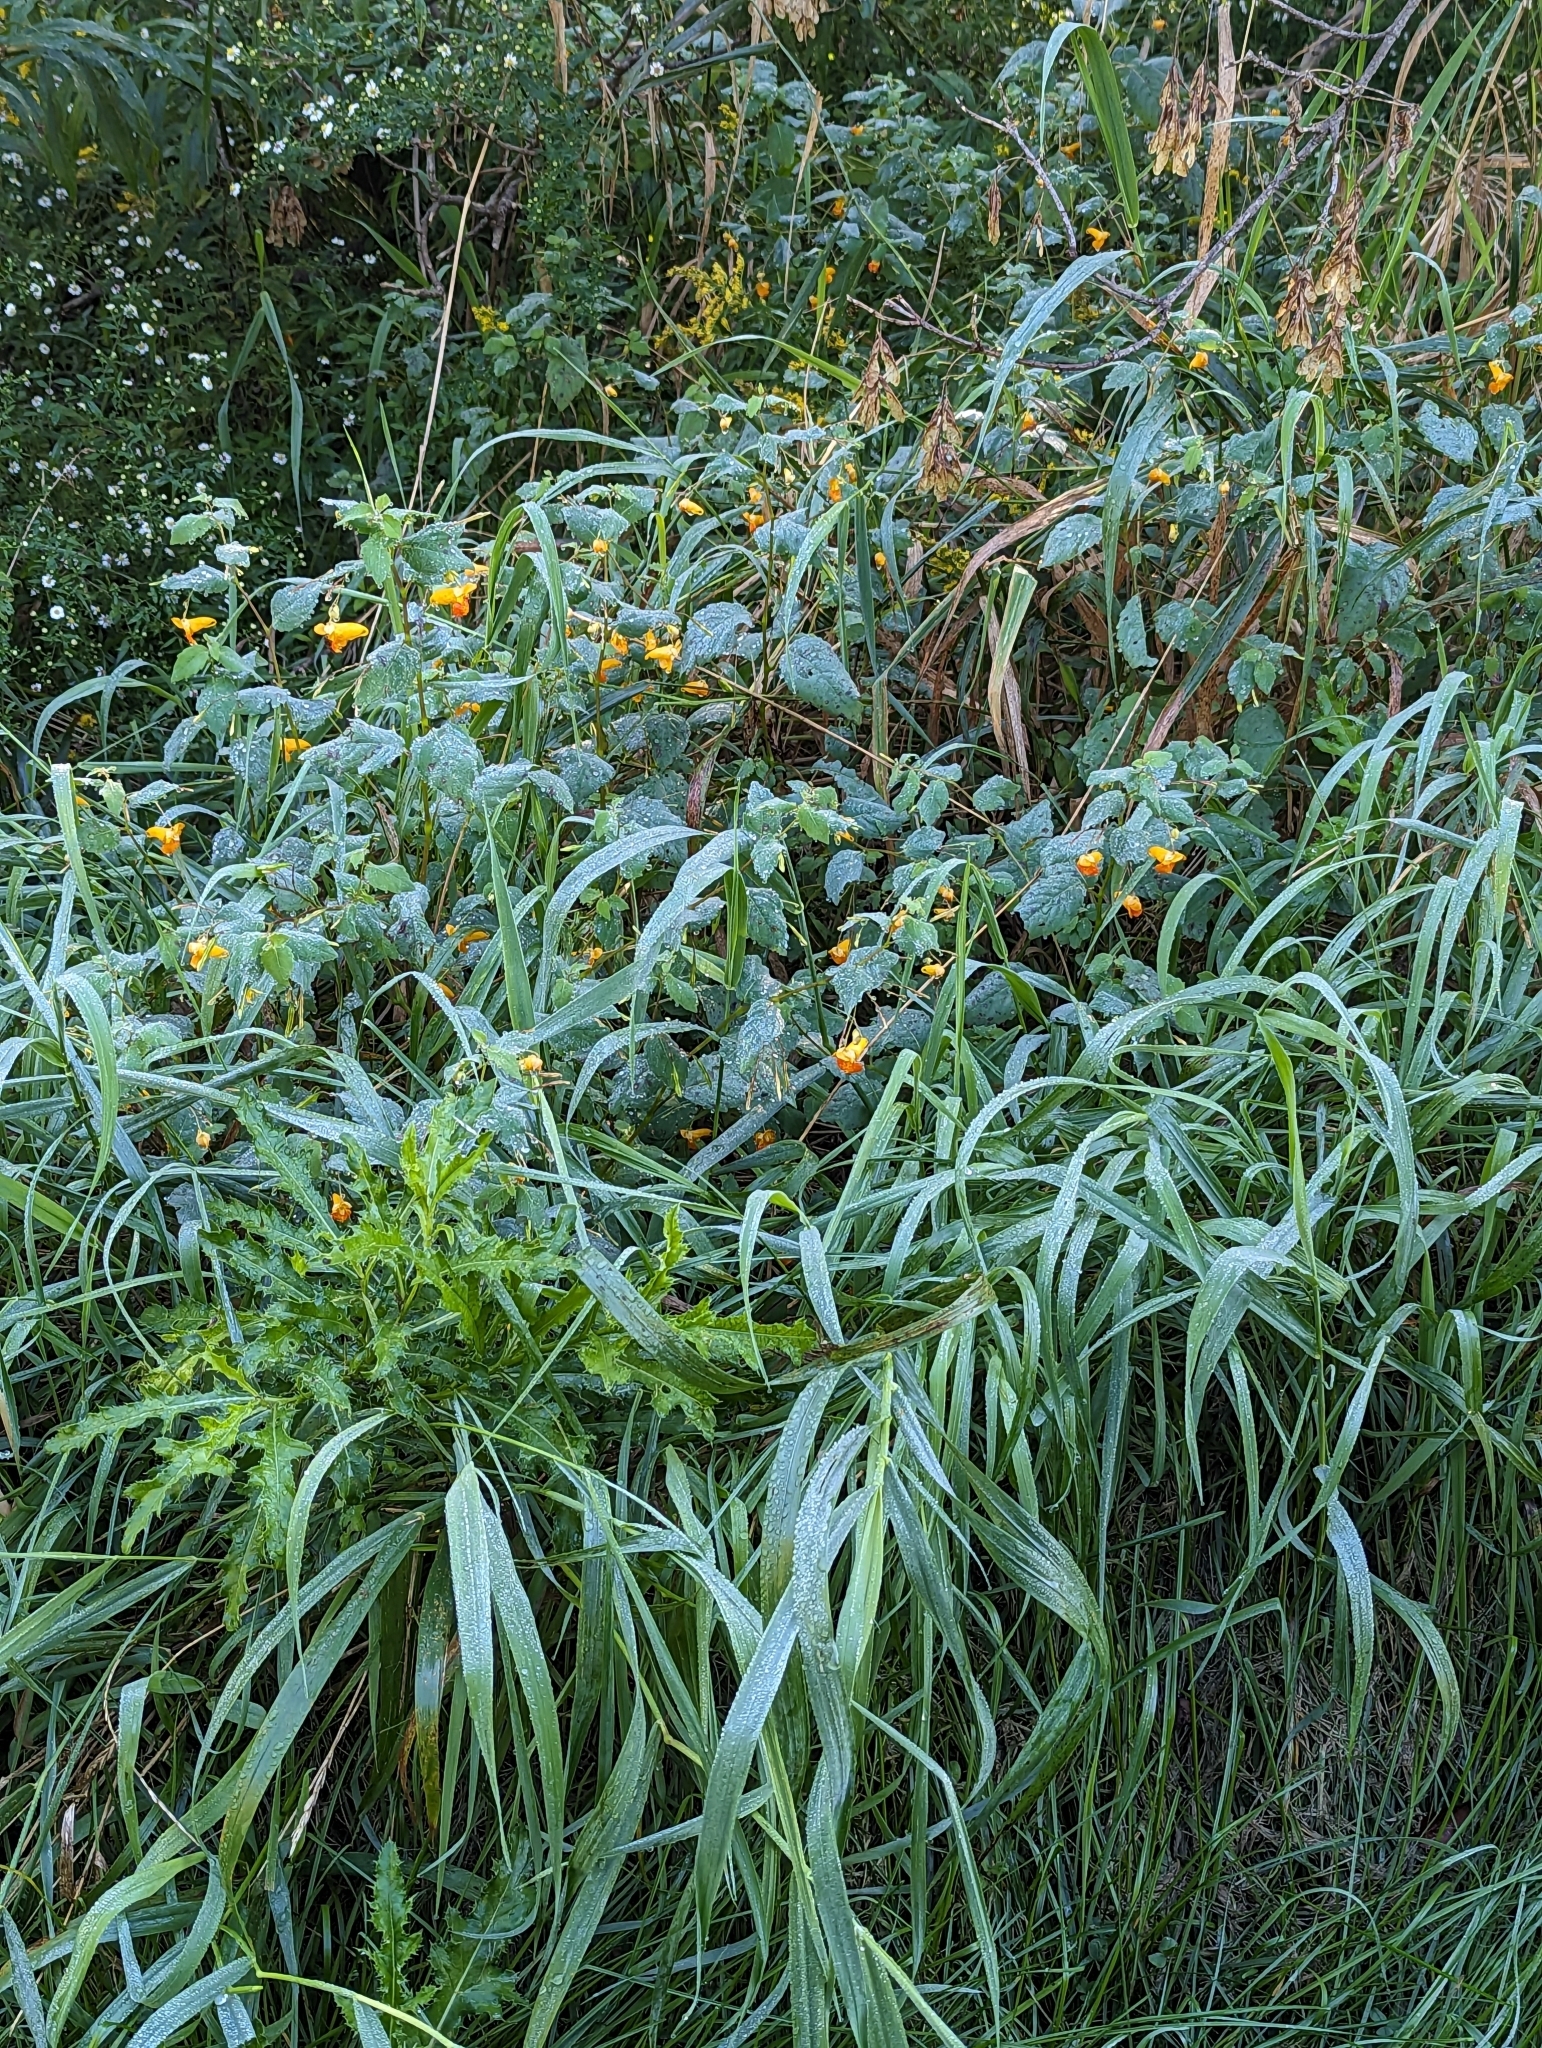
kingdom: Plantae
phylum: Tracheophyta
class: Magnoliopsida
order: Ericales
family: Balsaminaceae
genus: Impatiens
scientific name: Impatiens capensis
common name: Orange balsam
